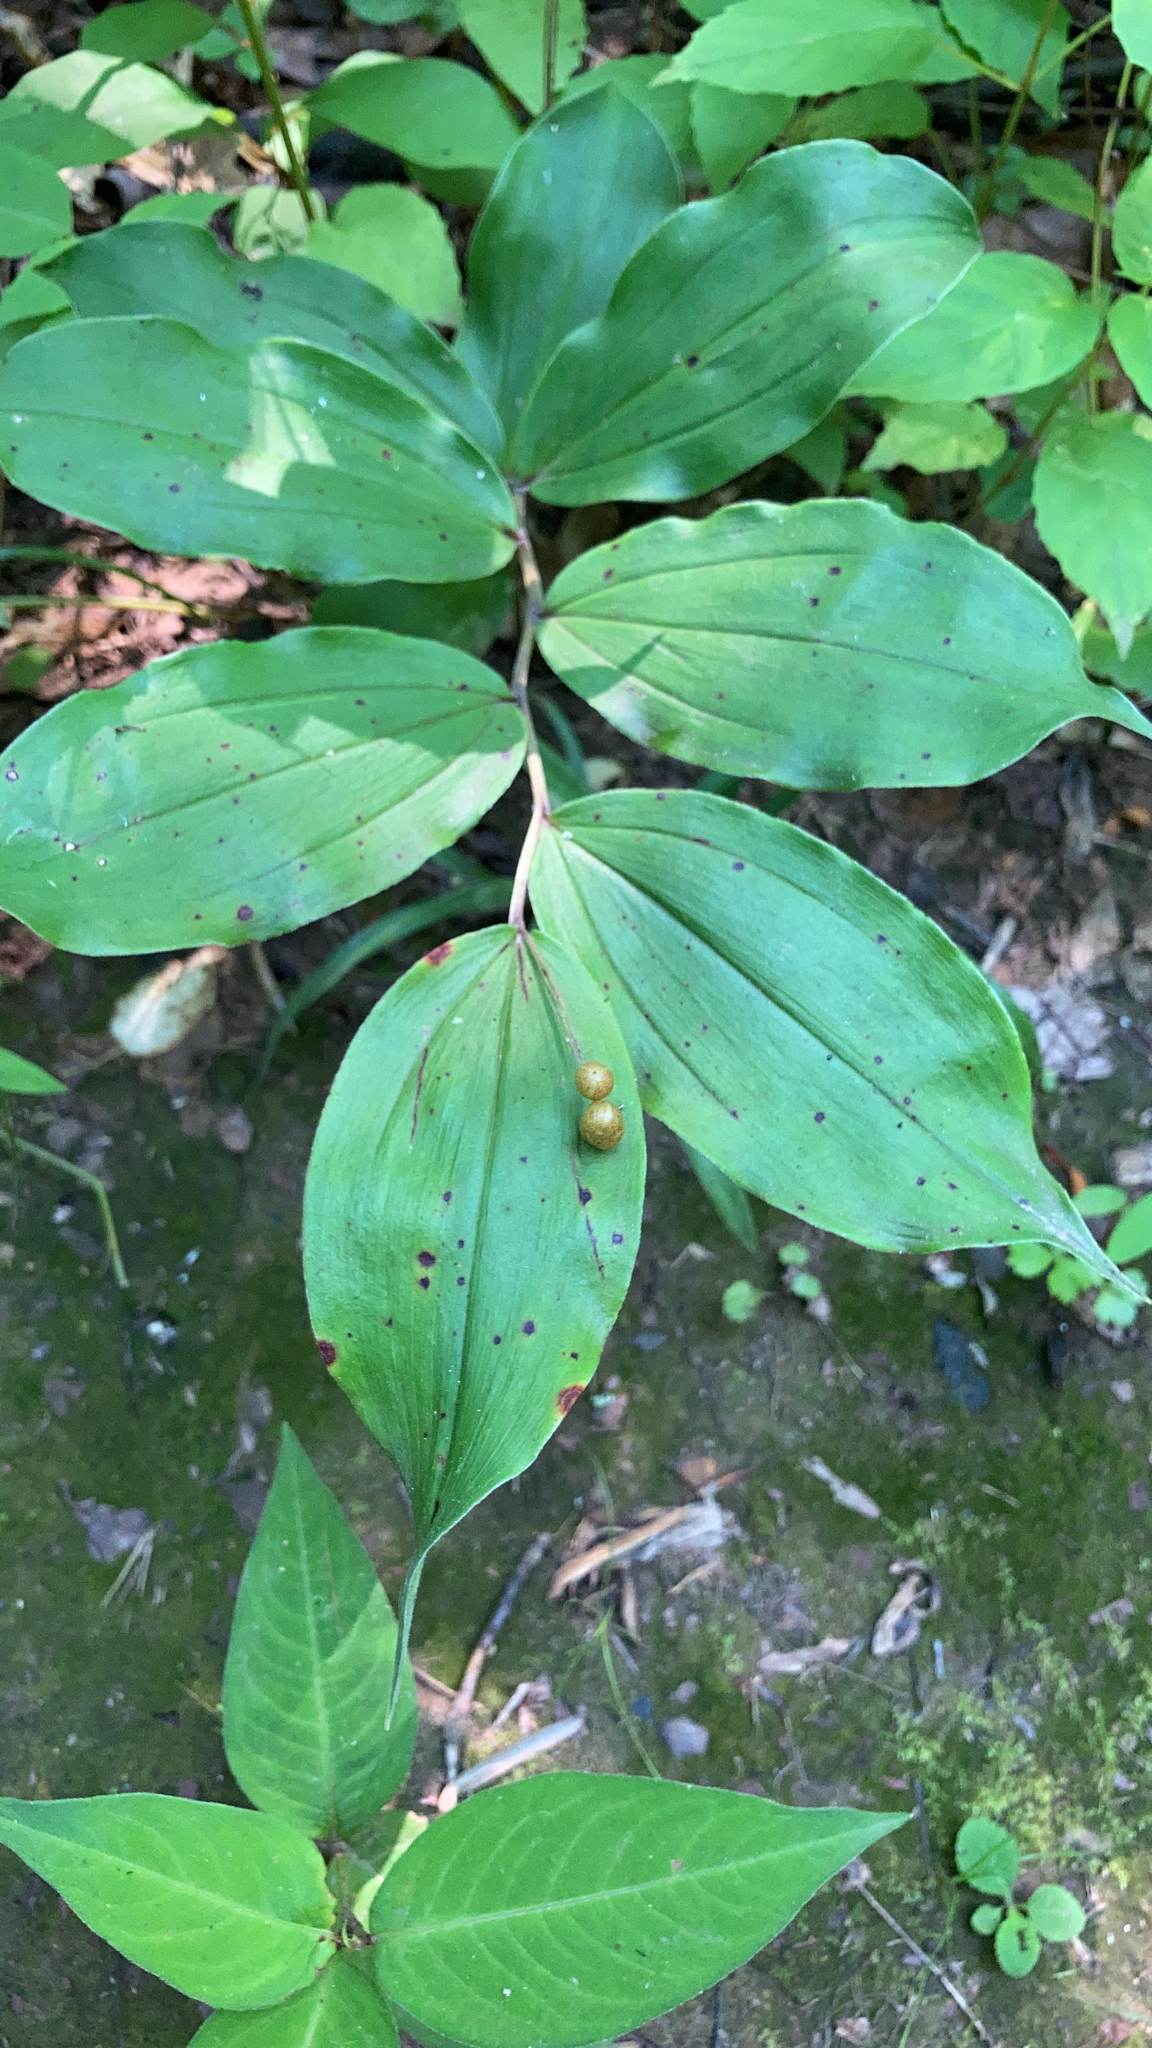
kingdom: Plantae
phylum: Tracheophyta
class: Liliopsida
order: Asparagales
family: Asparagaceae
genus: Maianthemum
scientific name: Maianthemum racemosum
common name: False spikenard
